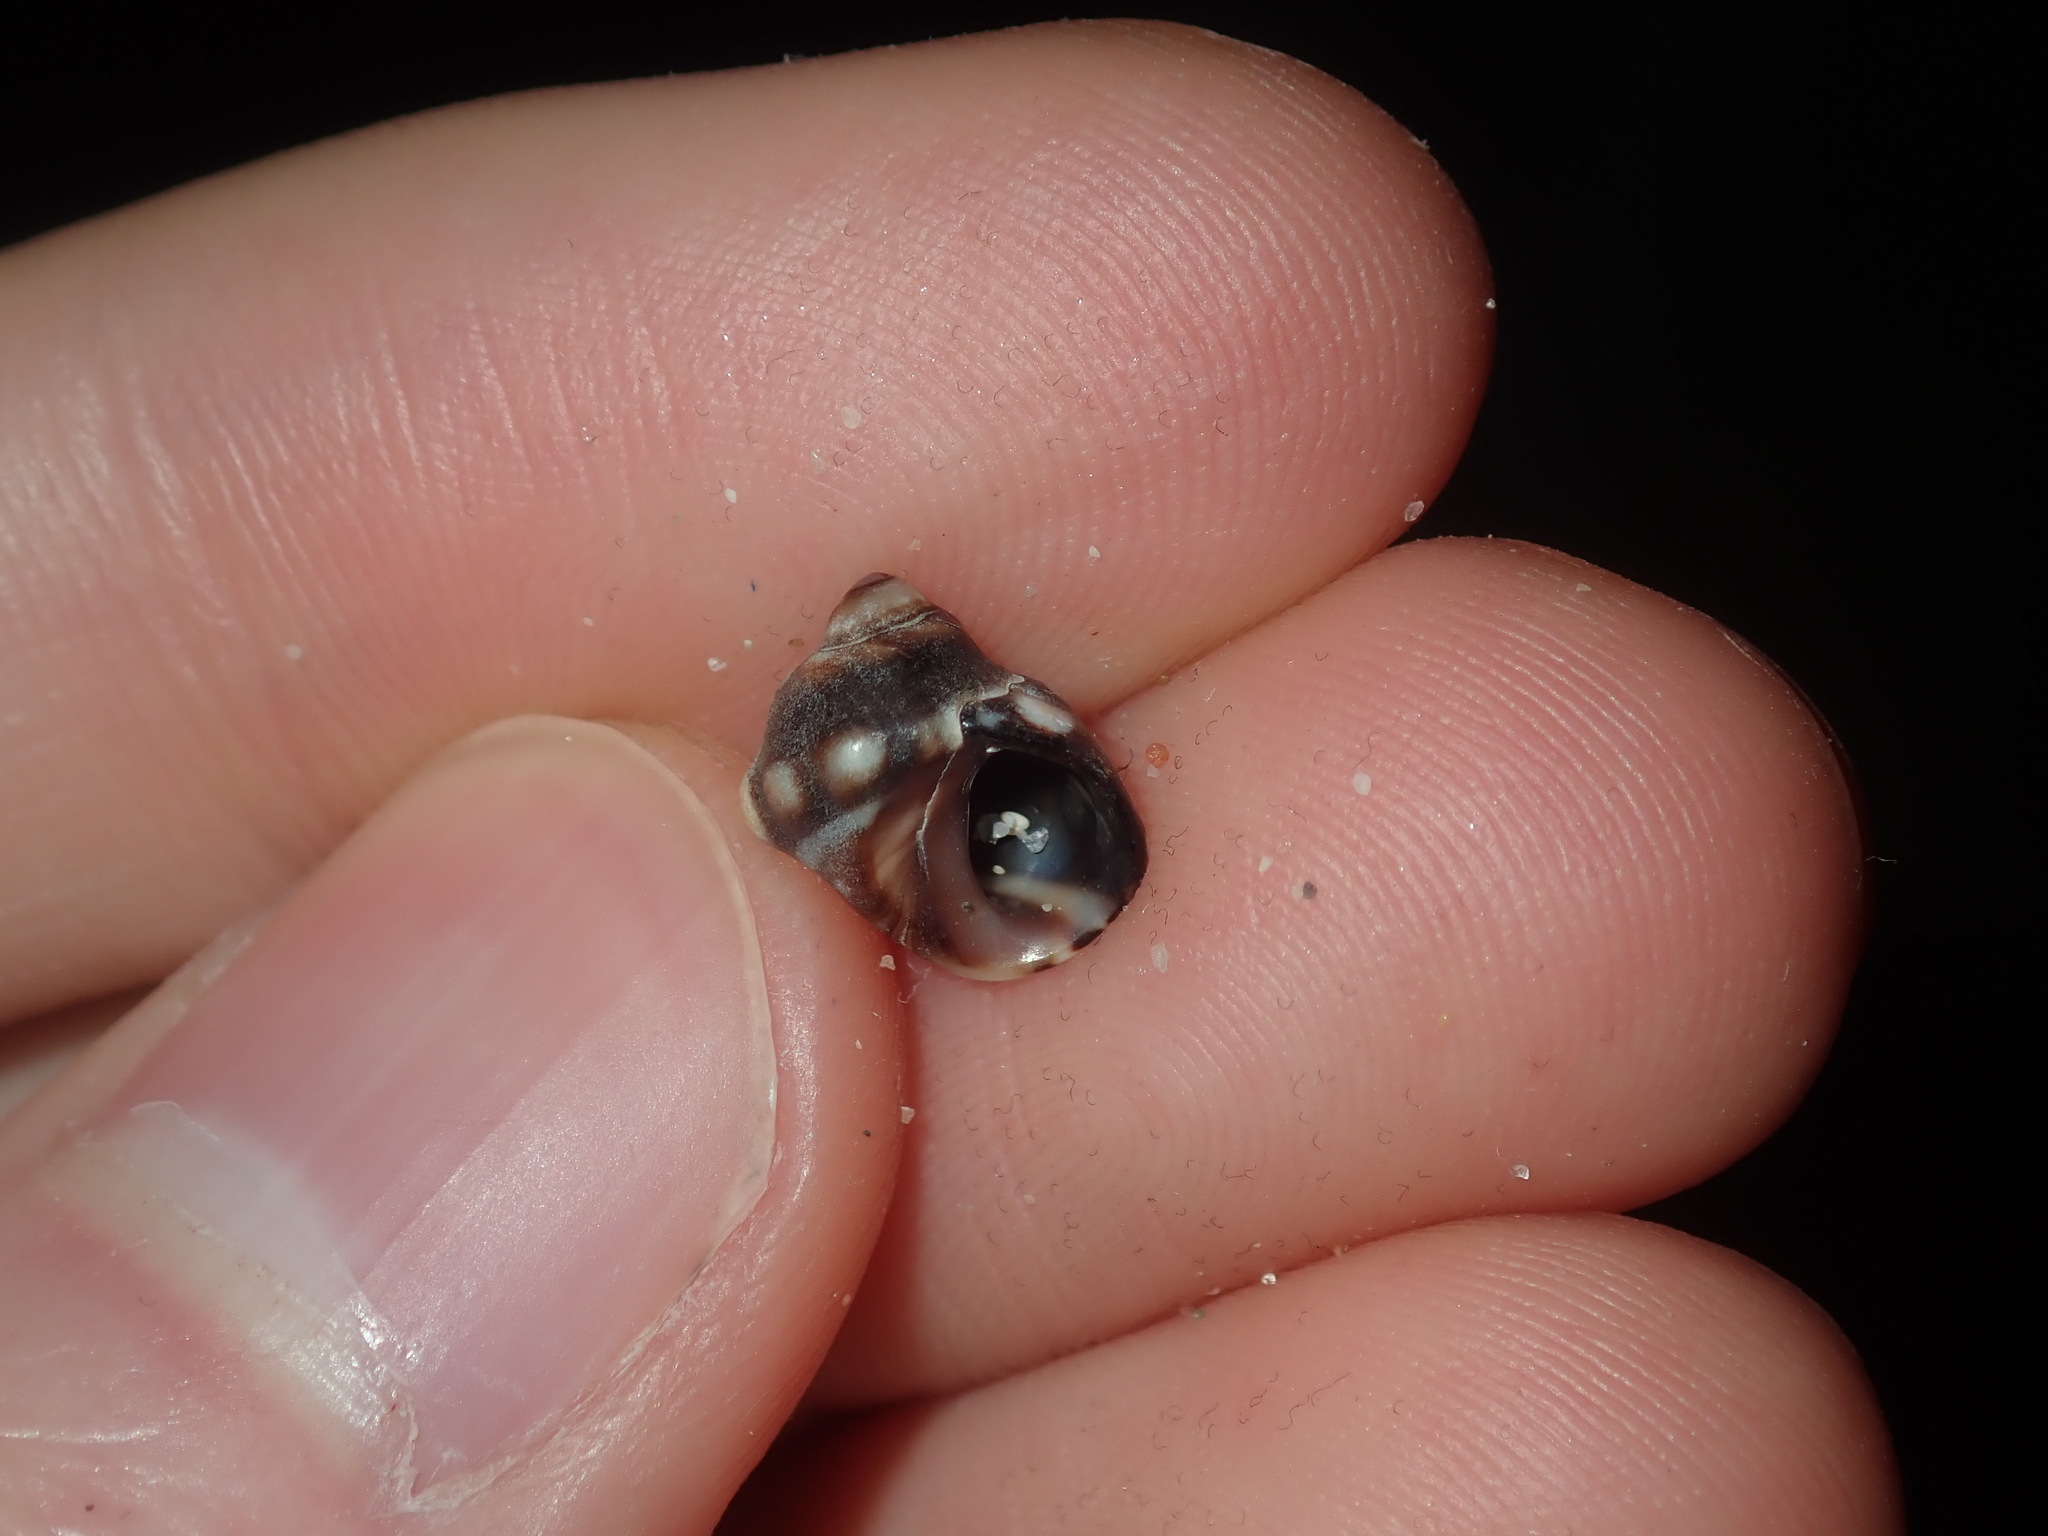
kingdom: Animalia
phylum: Mollusca
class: Gastropoda
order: Littorinimorpha
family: Littorinidae
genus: Echinolittorina
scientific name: Echinolittorina australis
